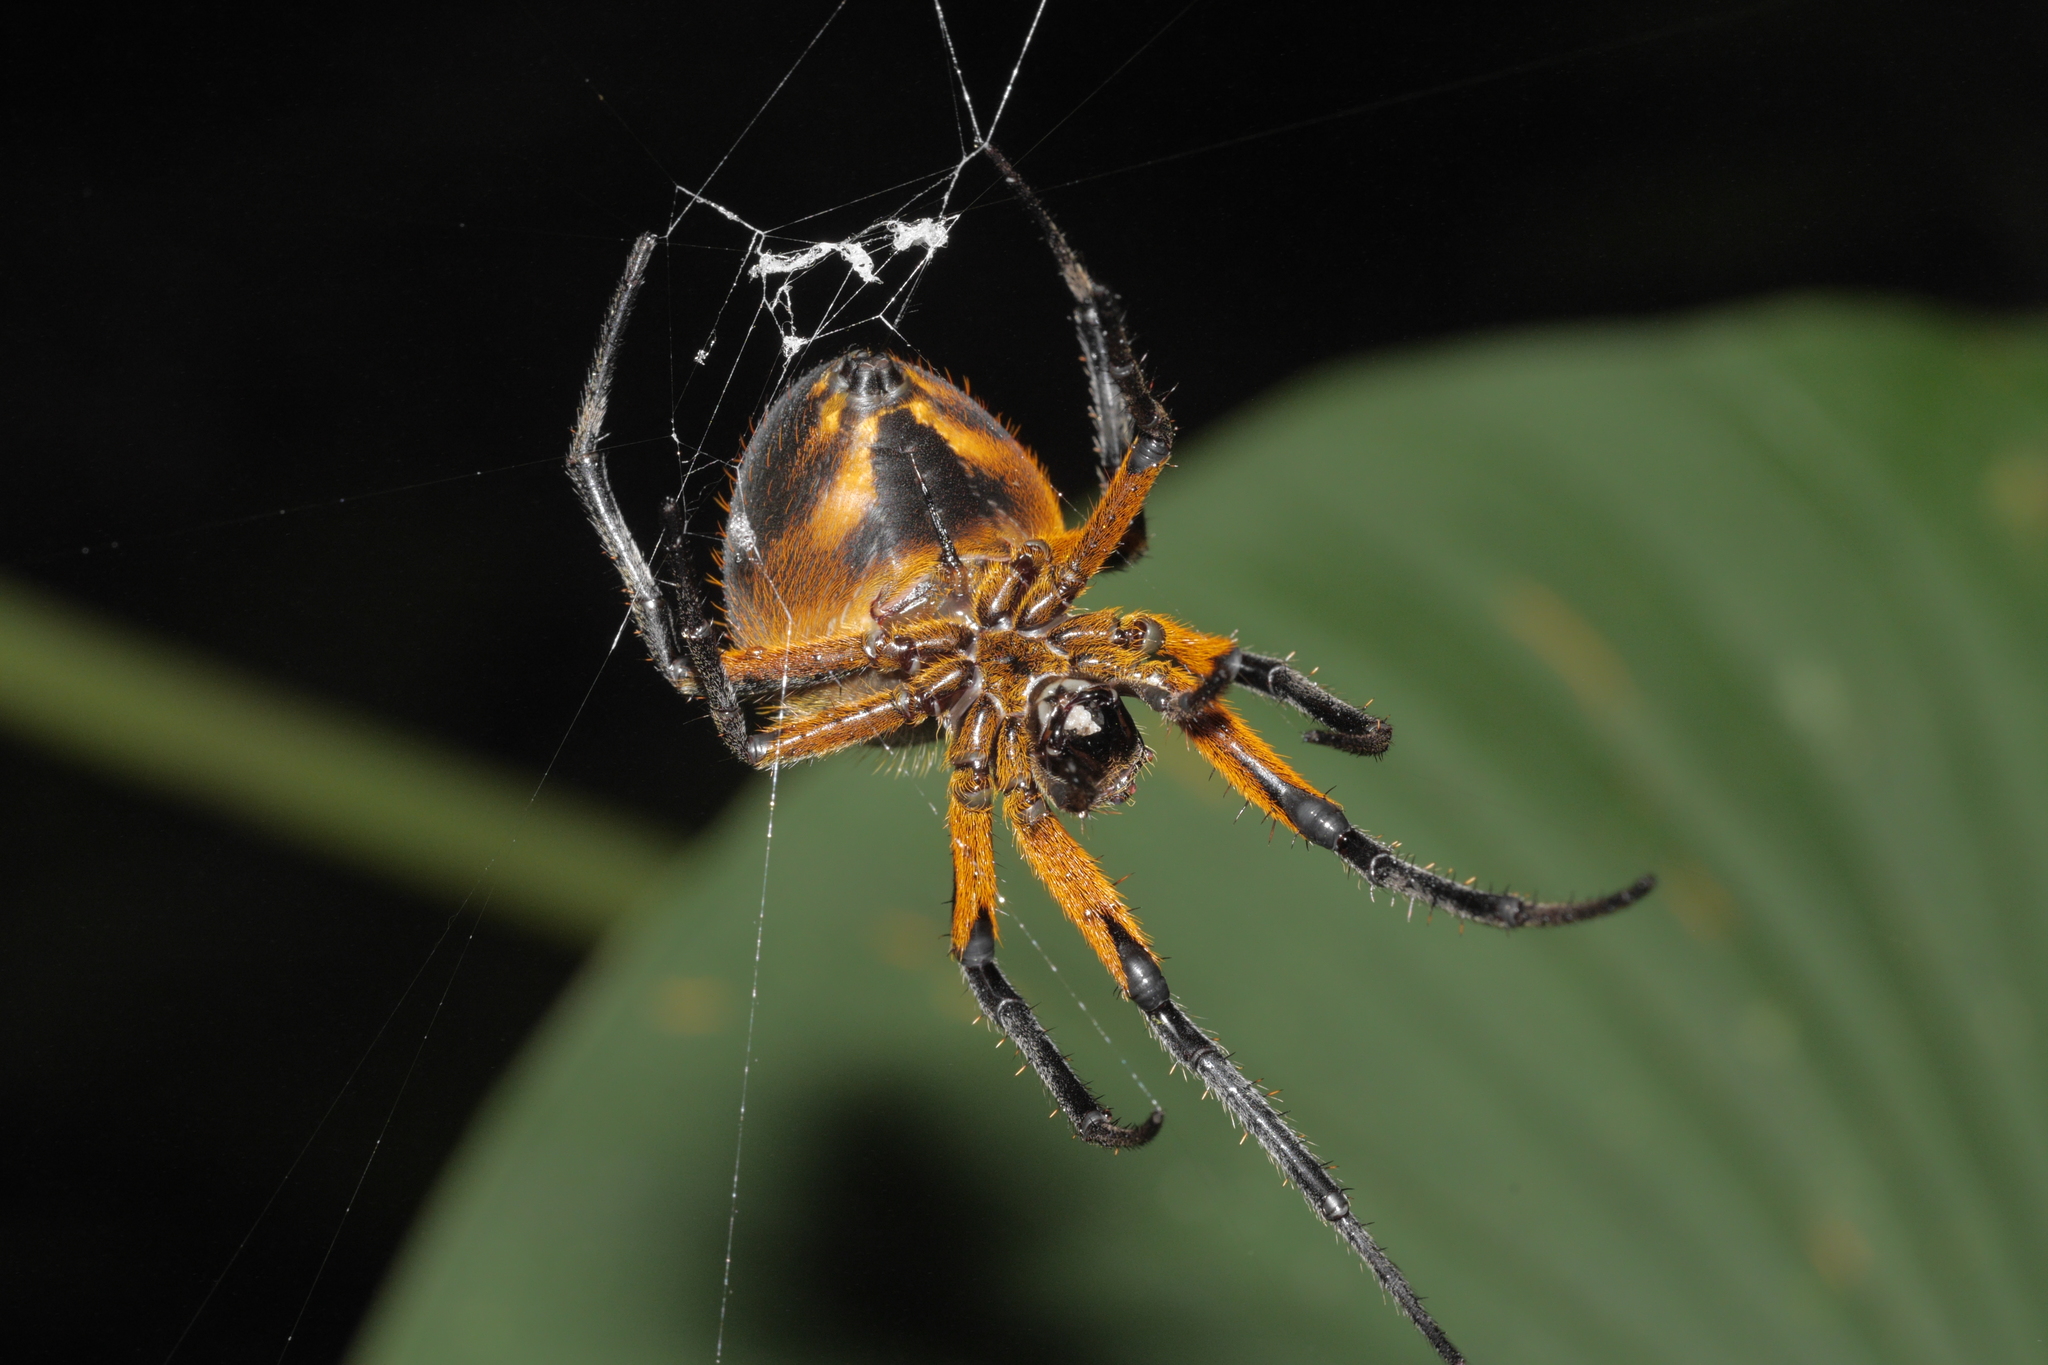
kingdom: Animalia
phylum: Arthropoda
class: Arachnida
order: Araneae
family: Araneidae
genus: Eriophora
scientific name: Eriophora fuliginea
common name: Orb weavers
